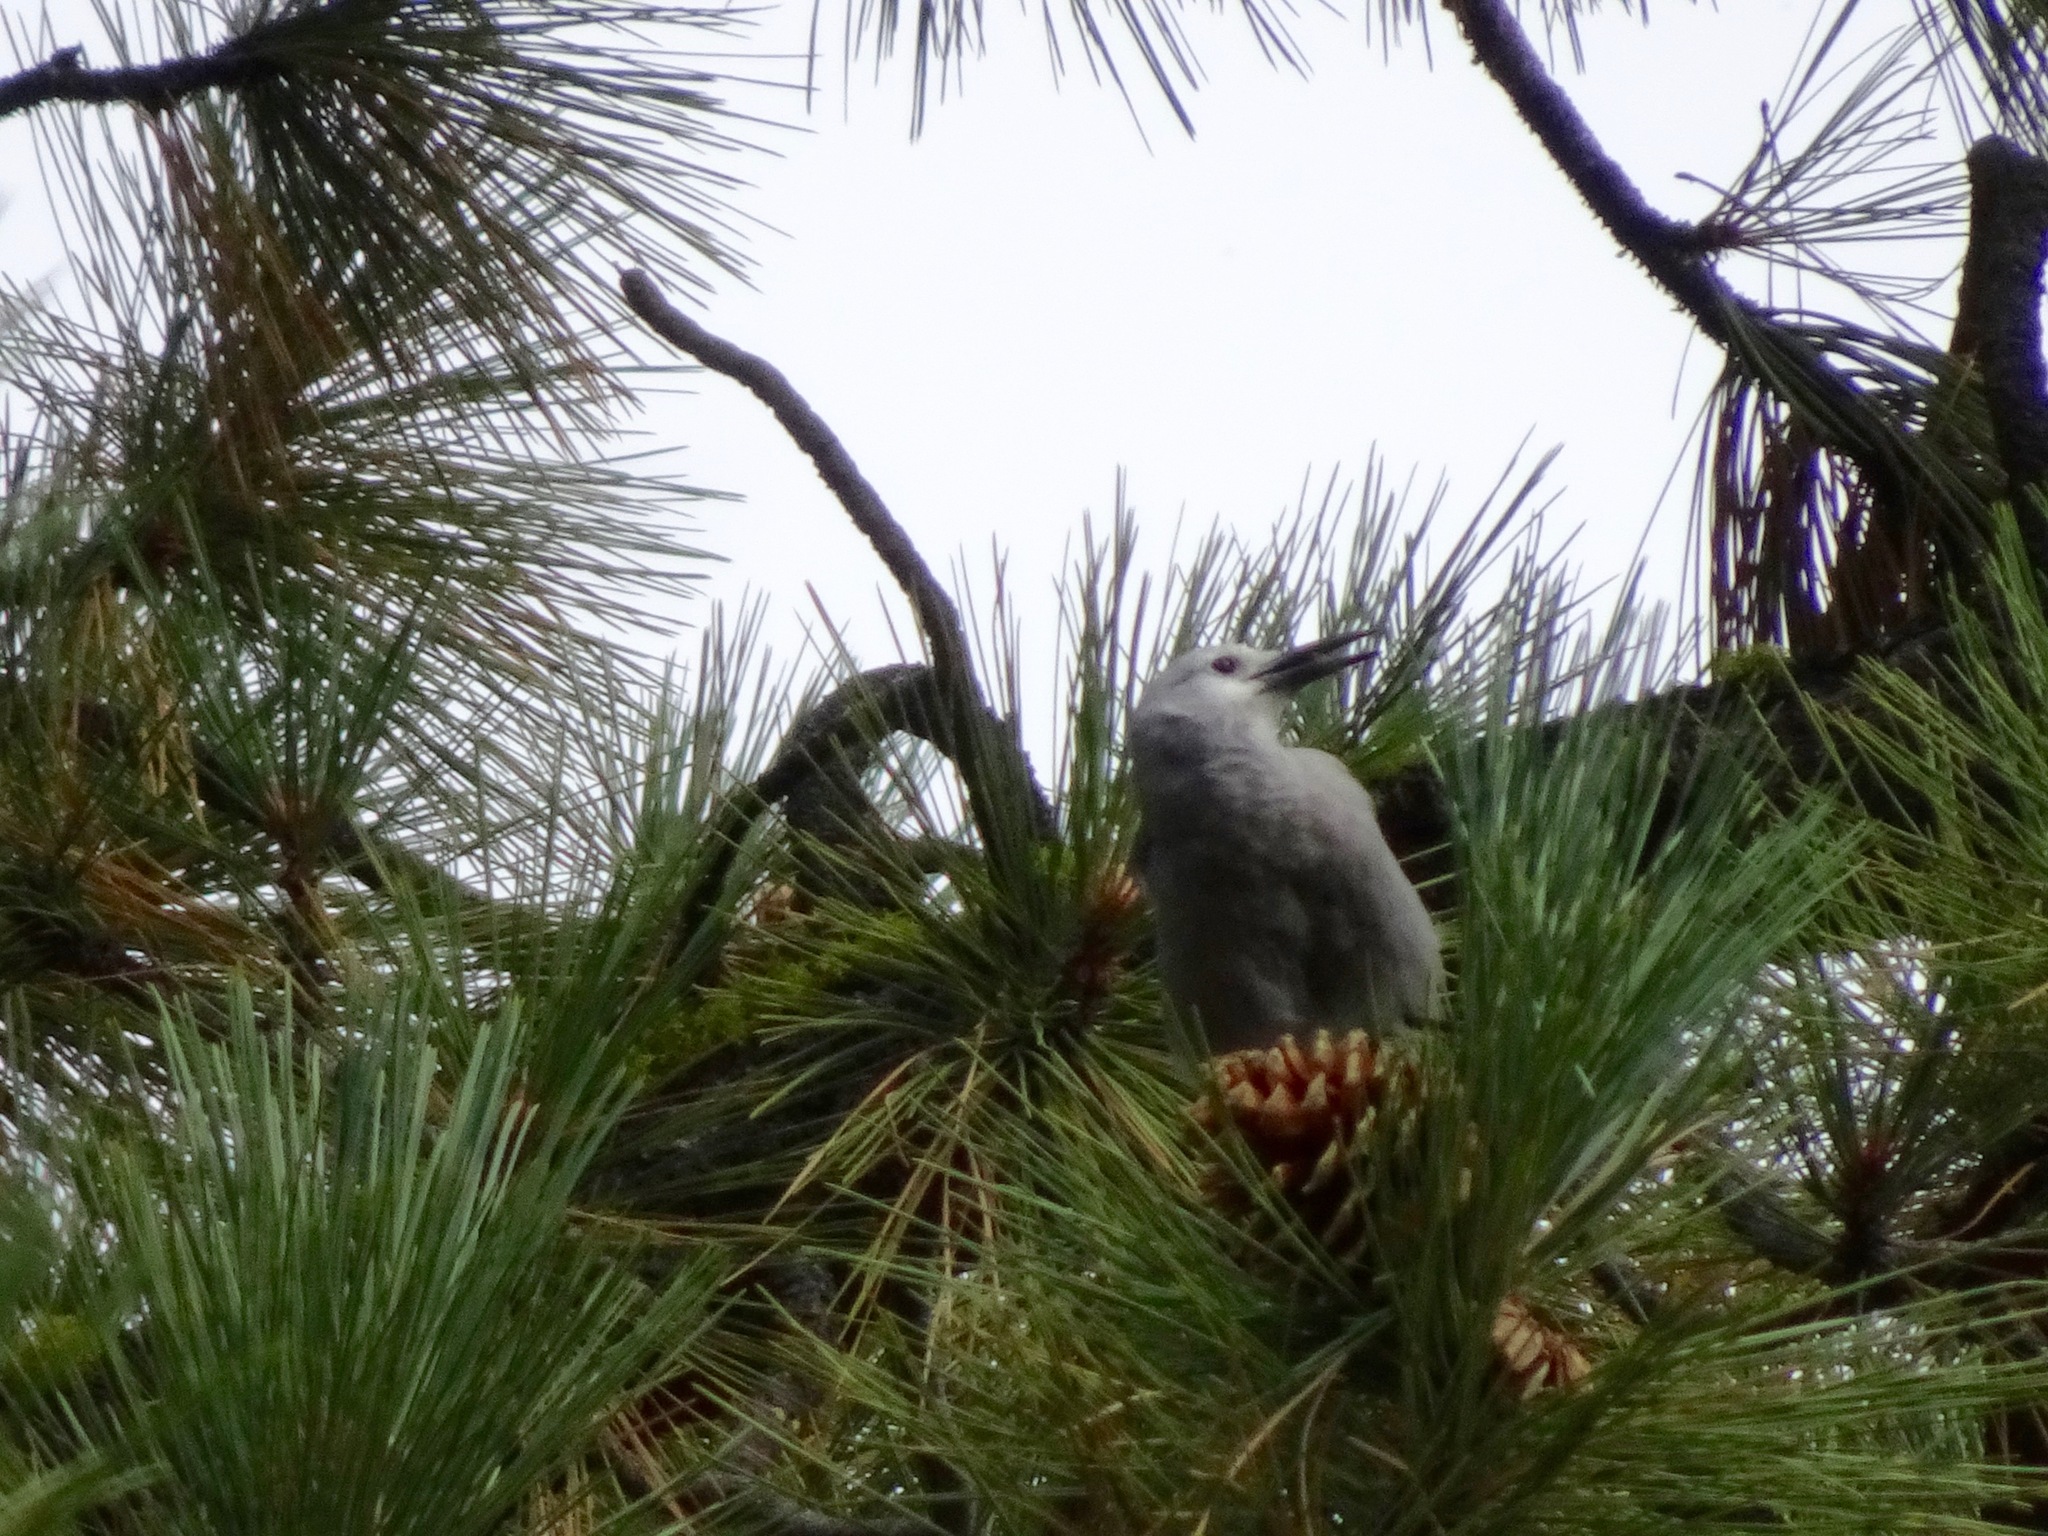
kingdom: Animalia
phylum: Chordata
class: Aves
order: Passeriformes
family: Corvidae
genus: Nucifraga
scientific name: Nucifraga columbiana
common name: Clark's nutcracker
